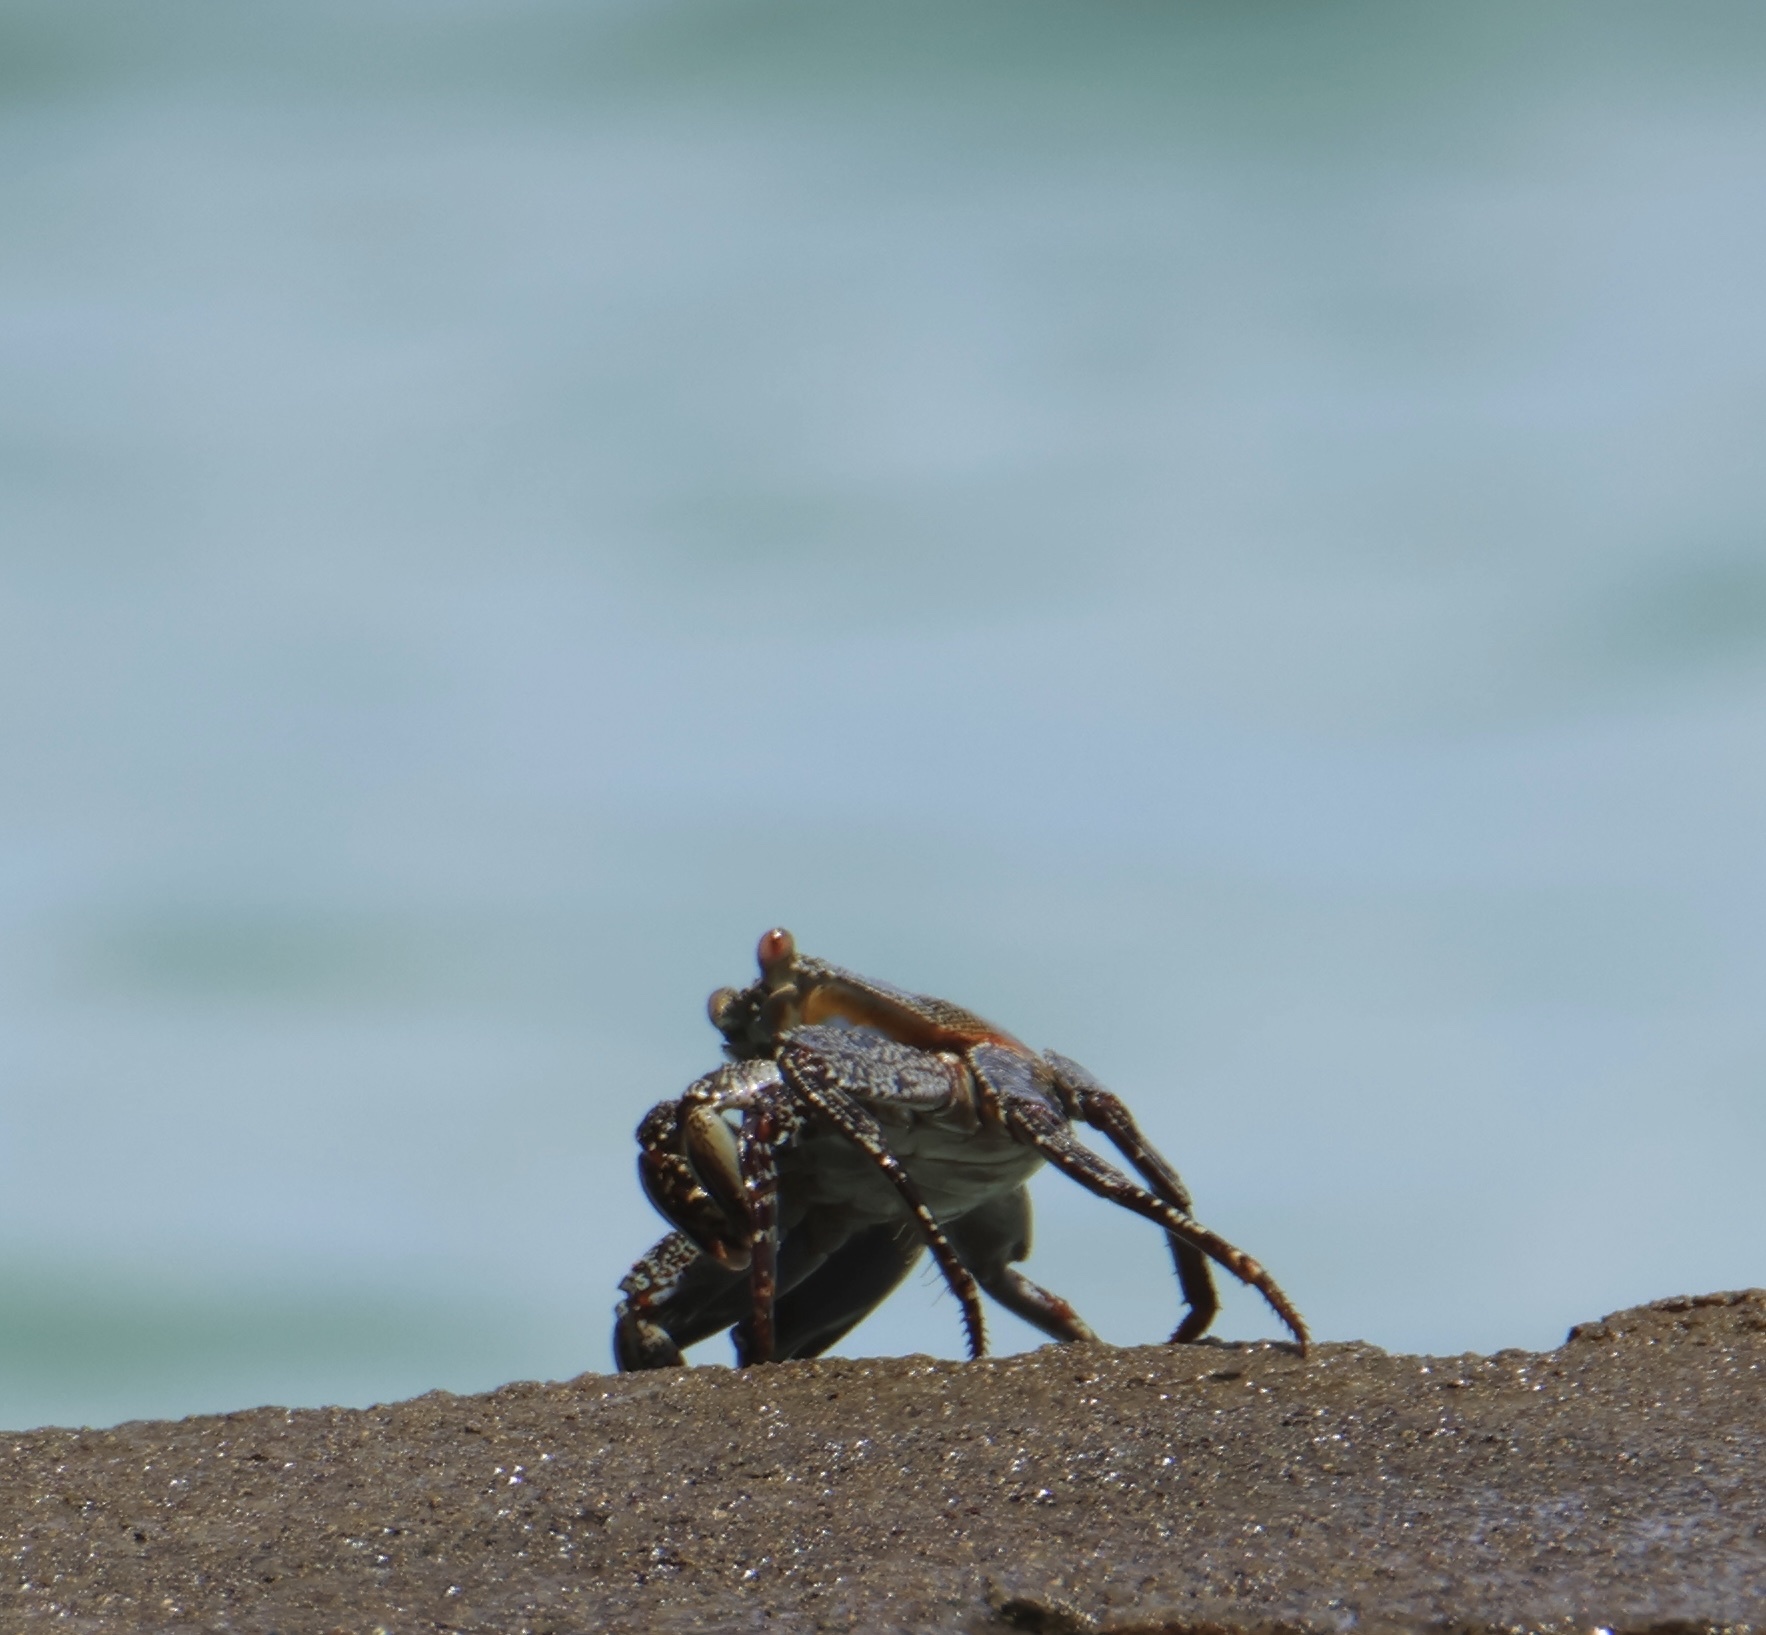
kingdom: Animalia
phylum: Arthropoda
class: Malacostraca
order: Decapoda
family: Grapsidae
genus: Grapsus
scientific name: Grapsus grapsus
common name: Sally lightfoot
